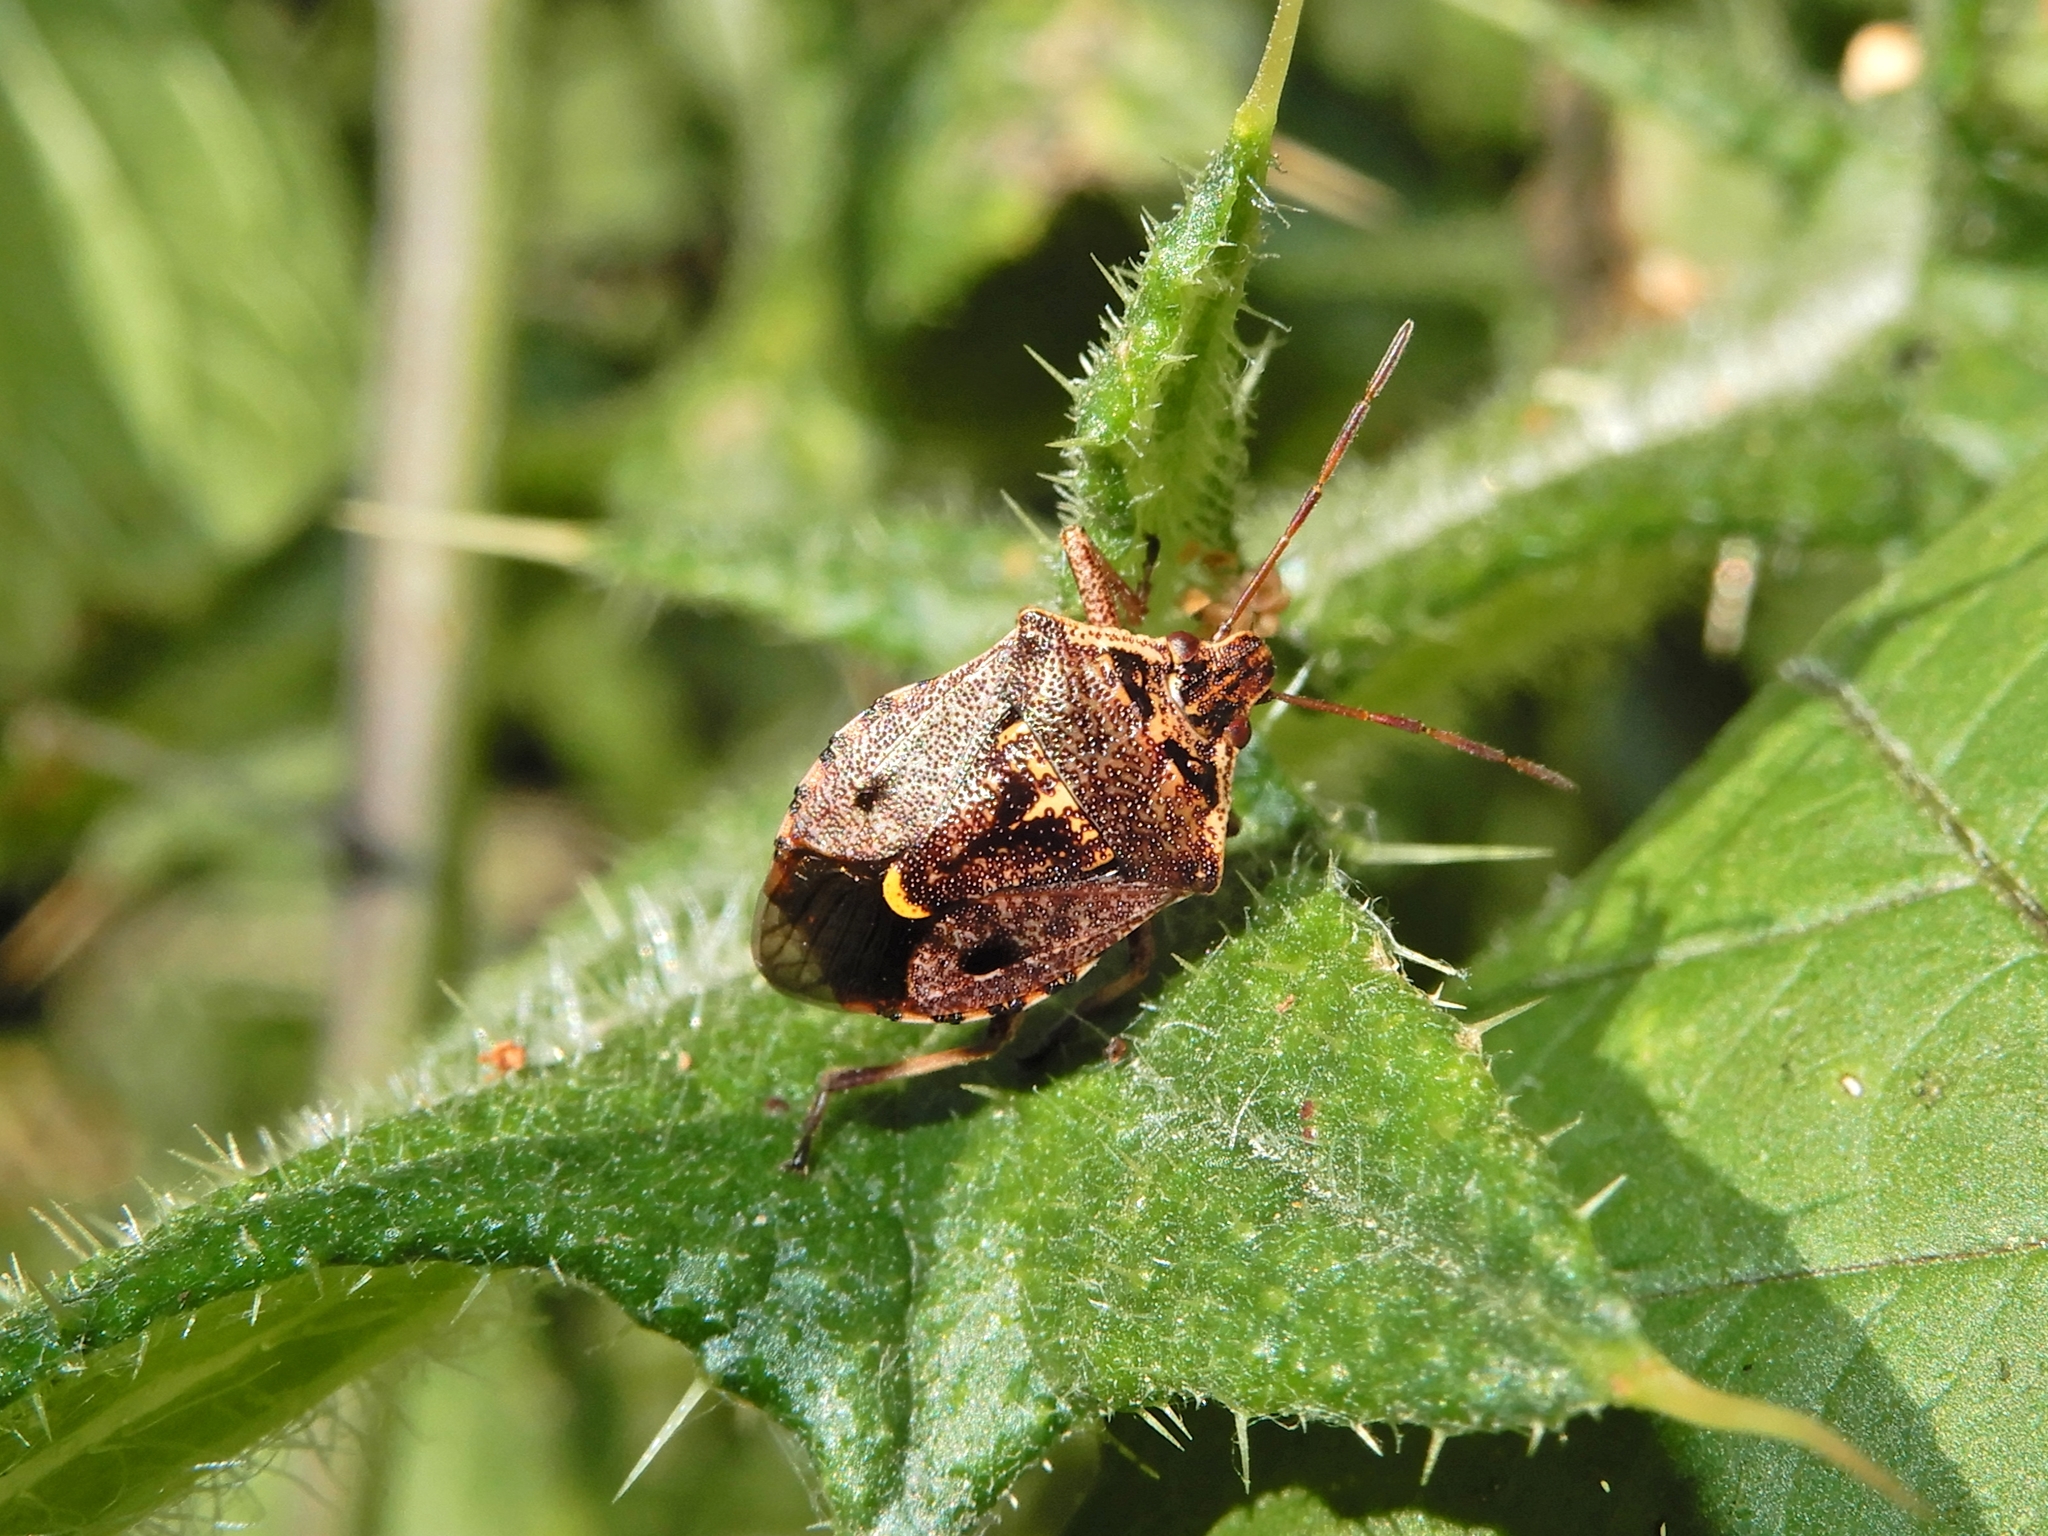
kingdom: Animalia
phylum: Arthropoda
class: Insecta
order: Hemiptera
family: Pentatomidae
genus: Cermatulus
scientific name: Cermatulus nasalis
